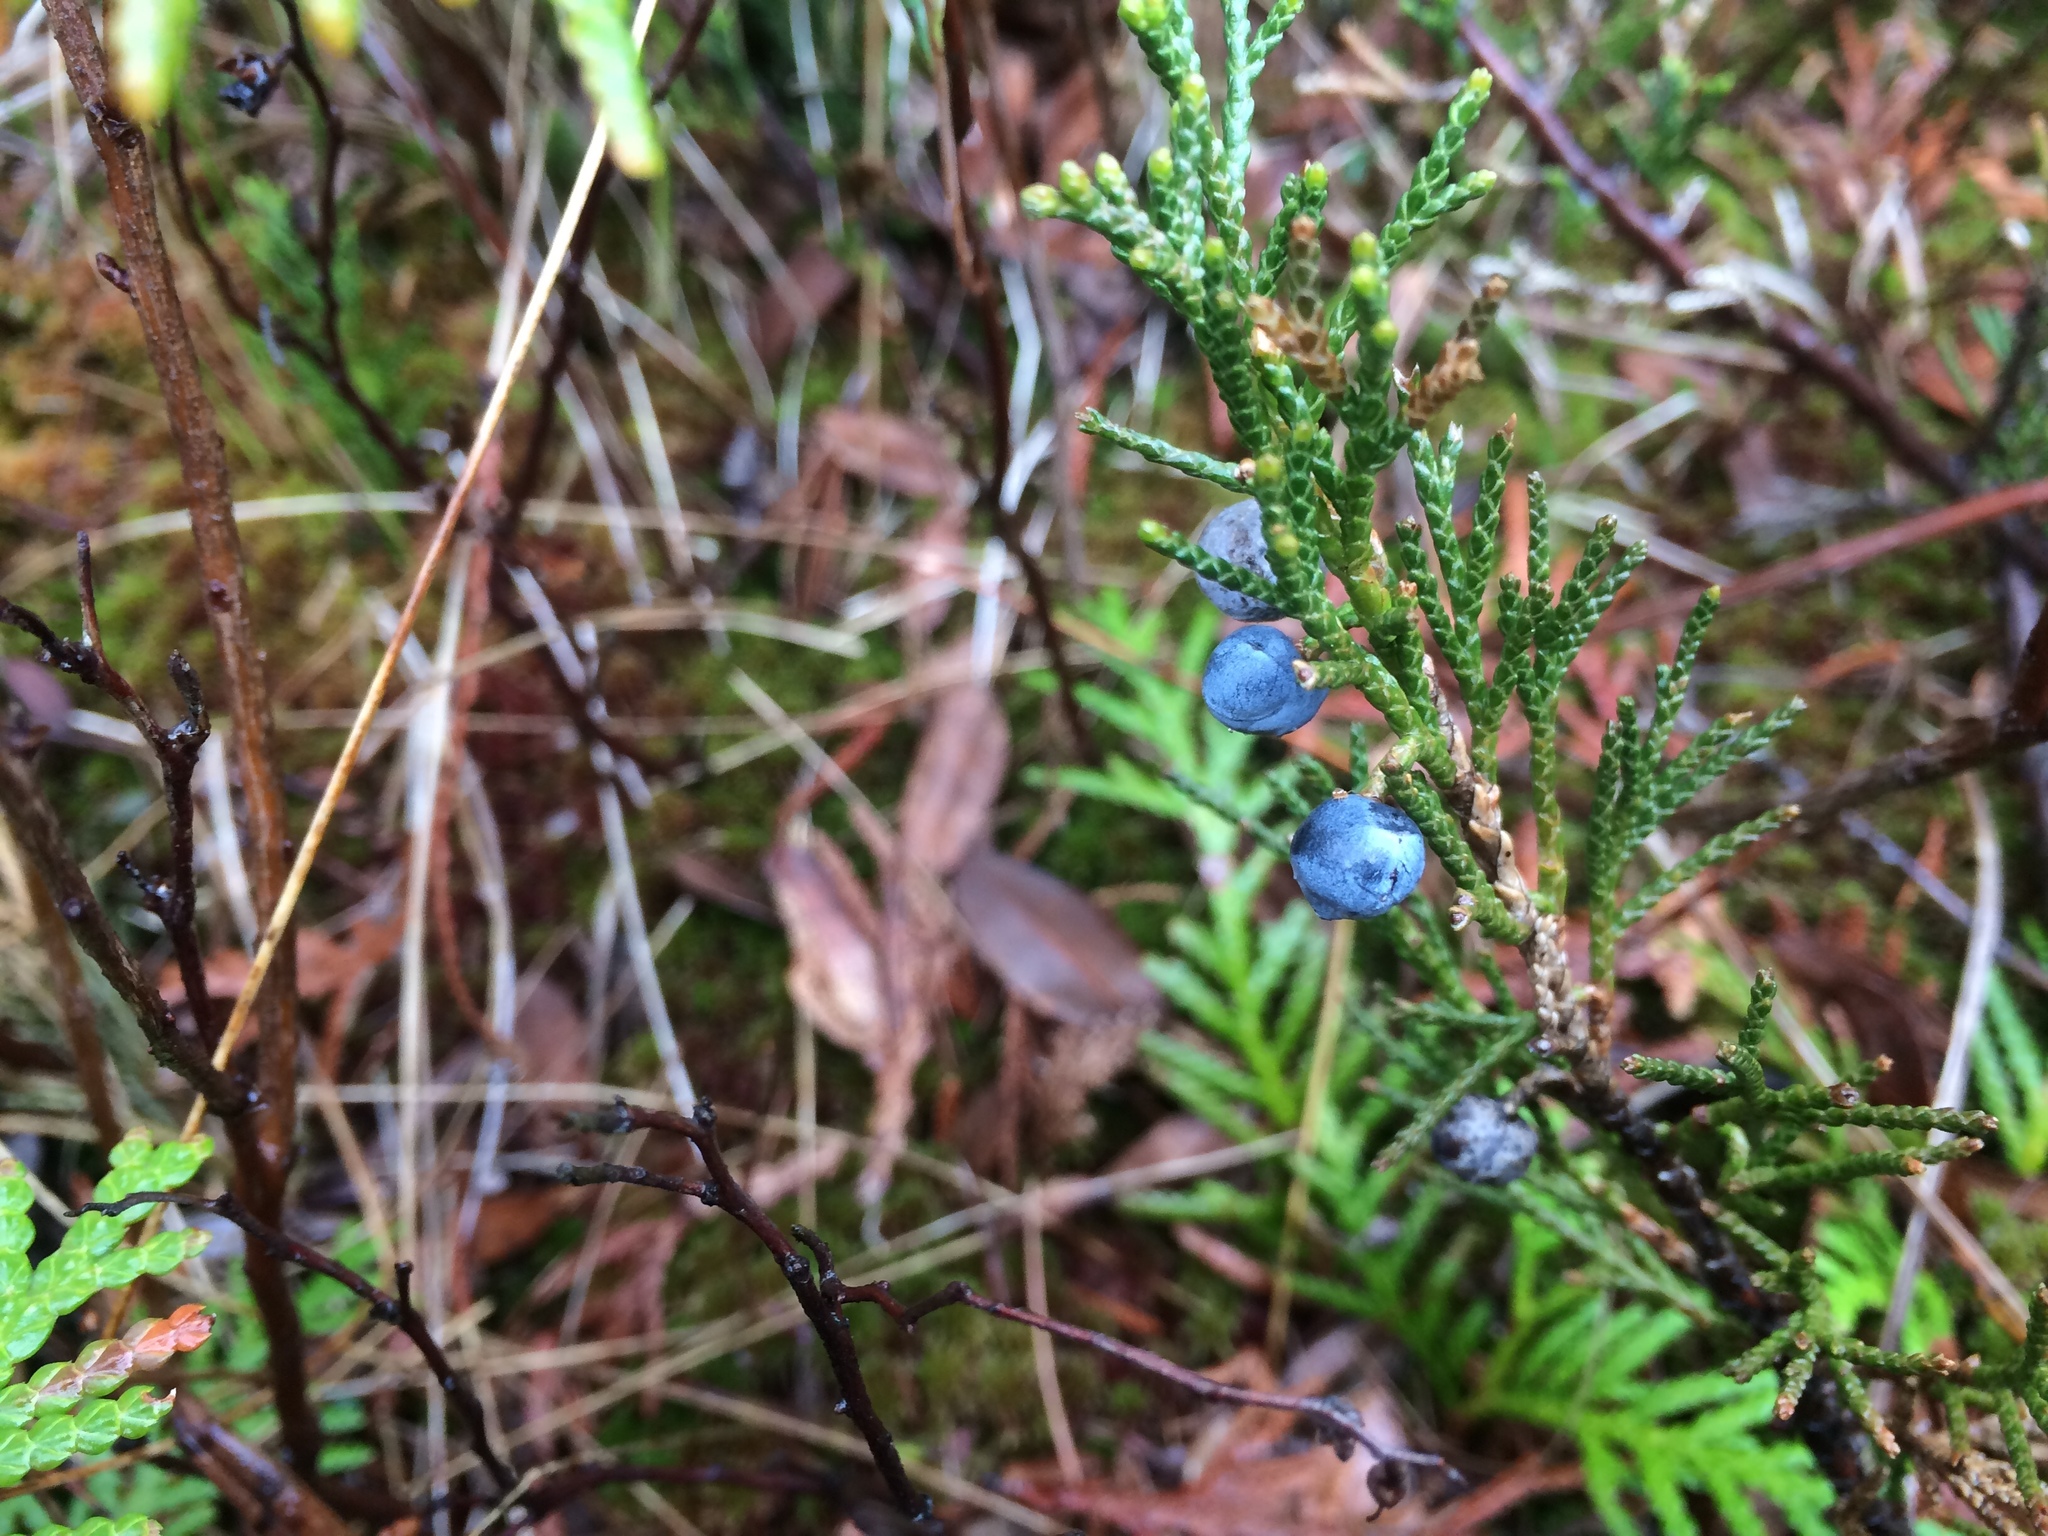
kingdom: Plantae
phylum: Tracheophyta
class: Pinopsida
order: Pinales
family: Cupressaceae
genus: Juniperus
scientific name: Juniperus horizontalis
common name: Creeping juniper
